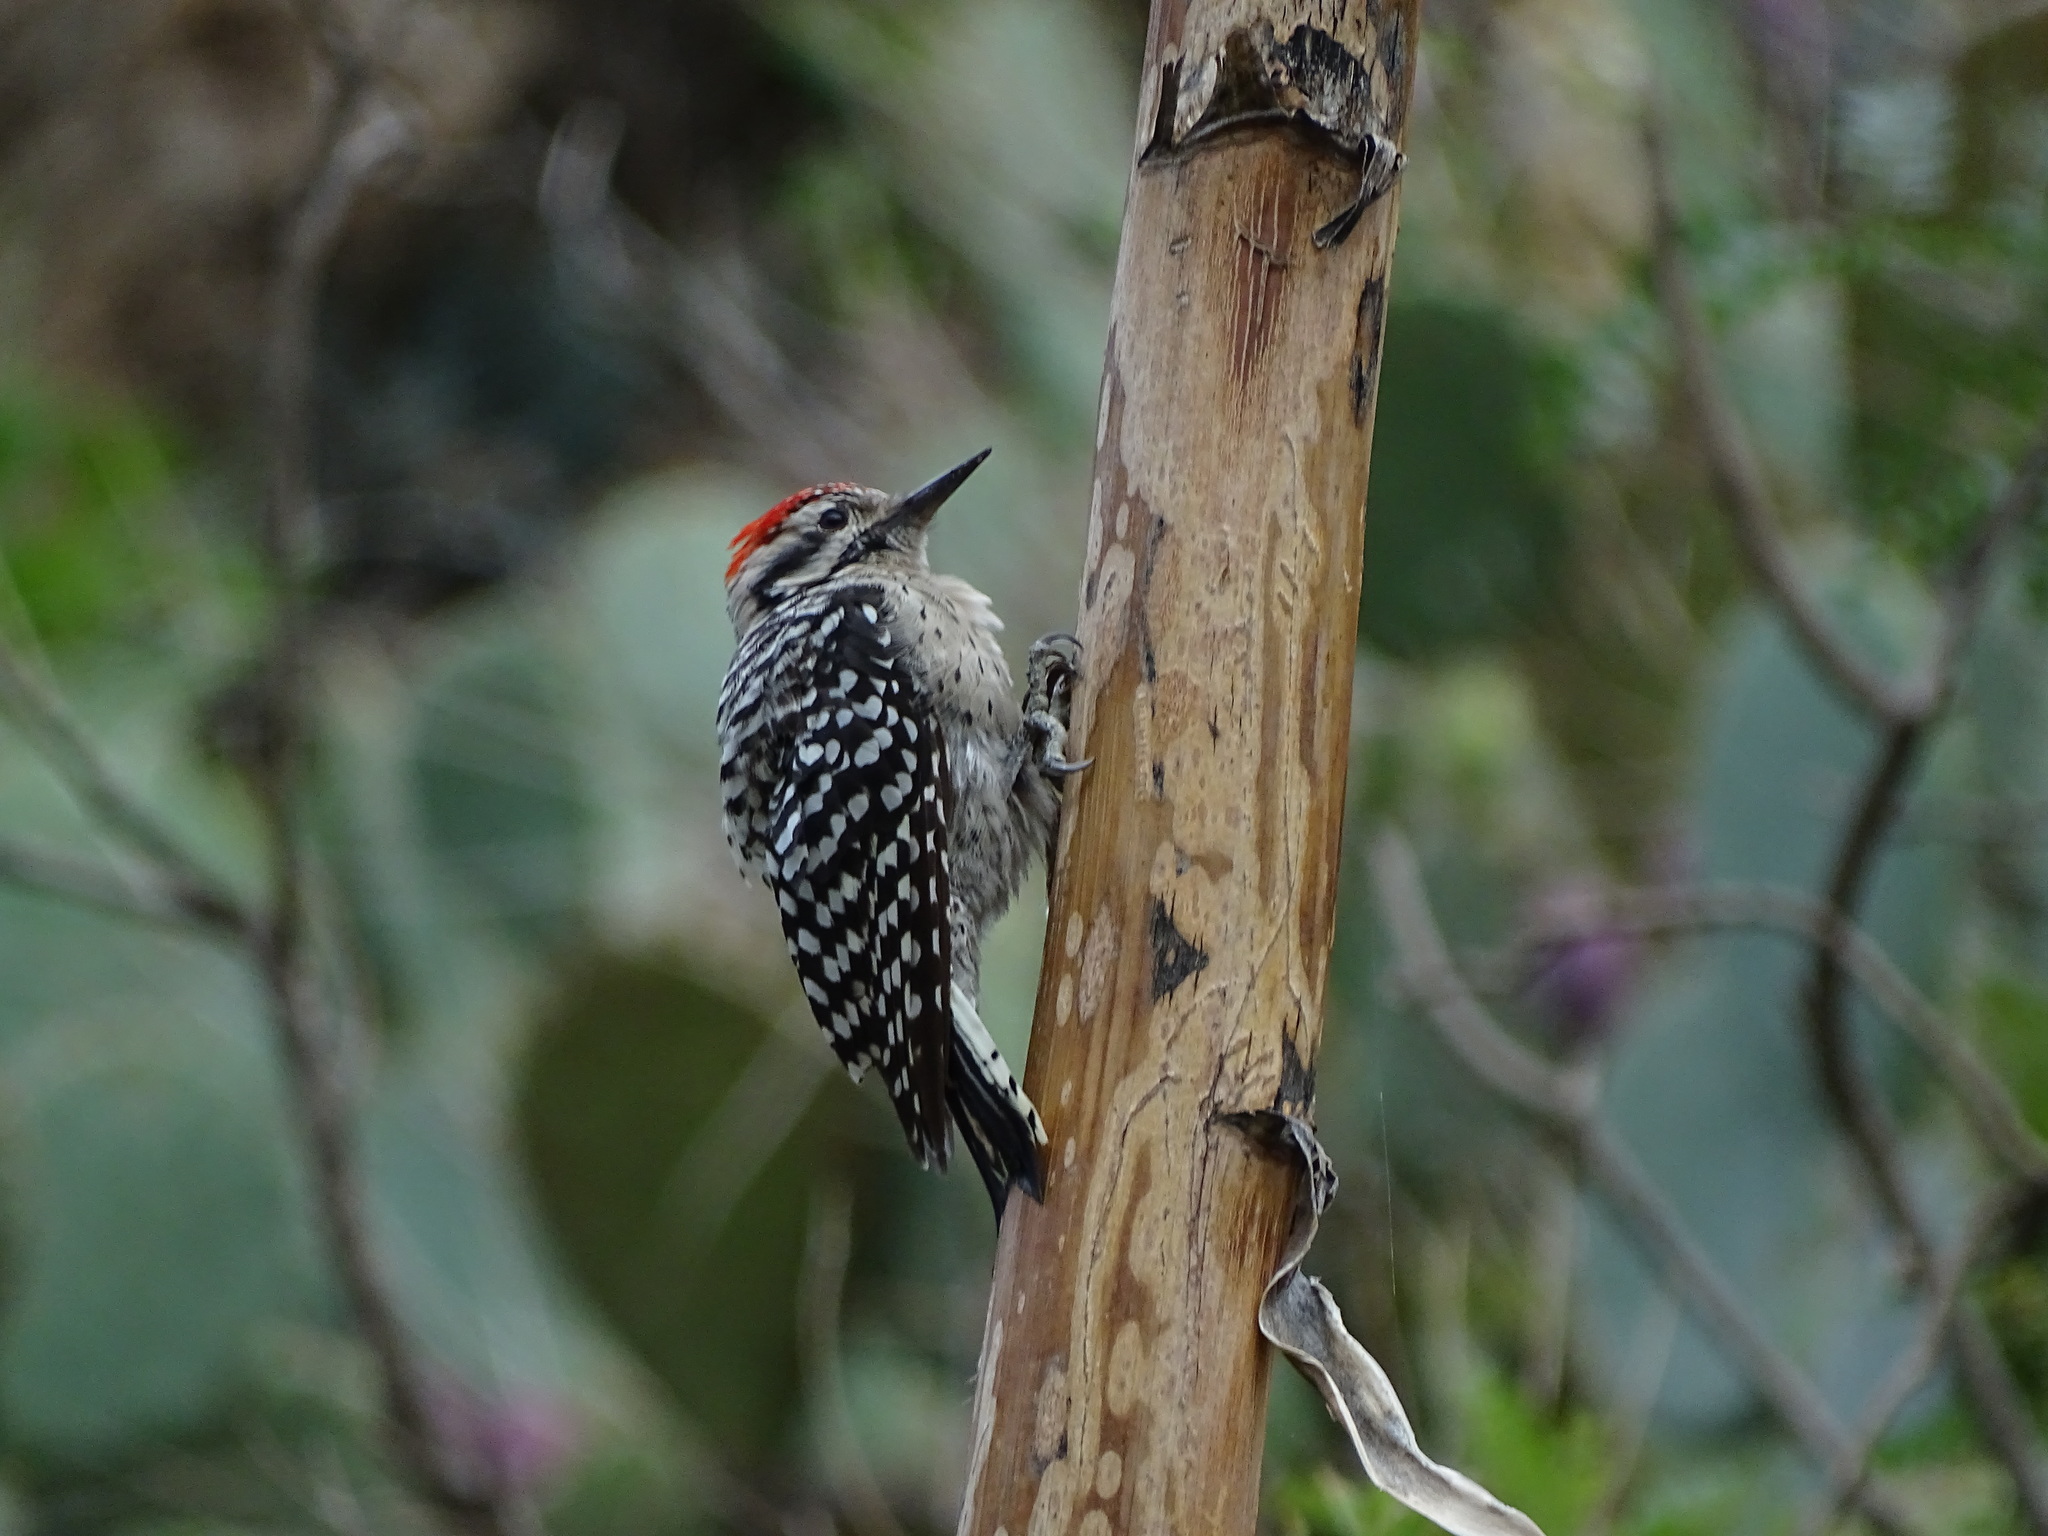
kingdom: Animalia
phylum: Chordata
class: Aves
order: Piciformes
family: Picidae
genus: Dryobates
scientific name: Dryobates scalaris
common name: Ladder-backed woodpecker
